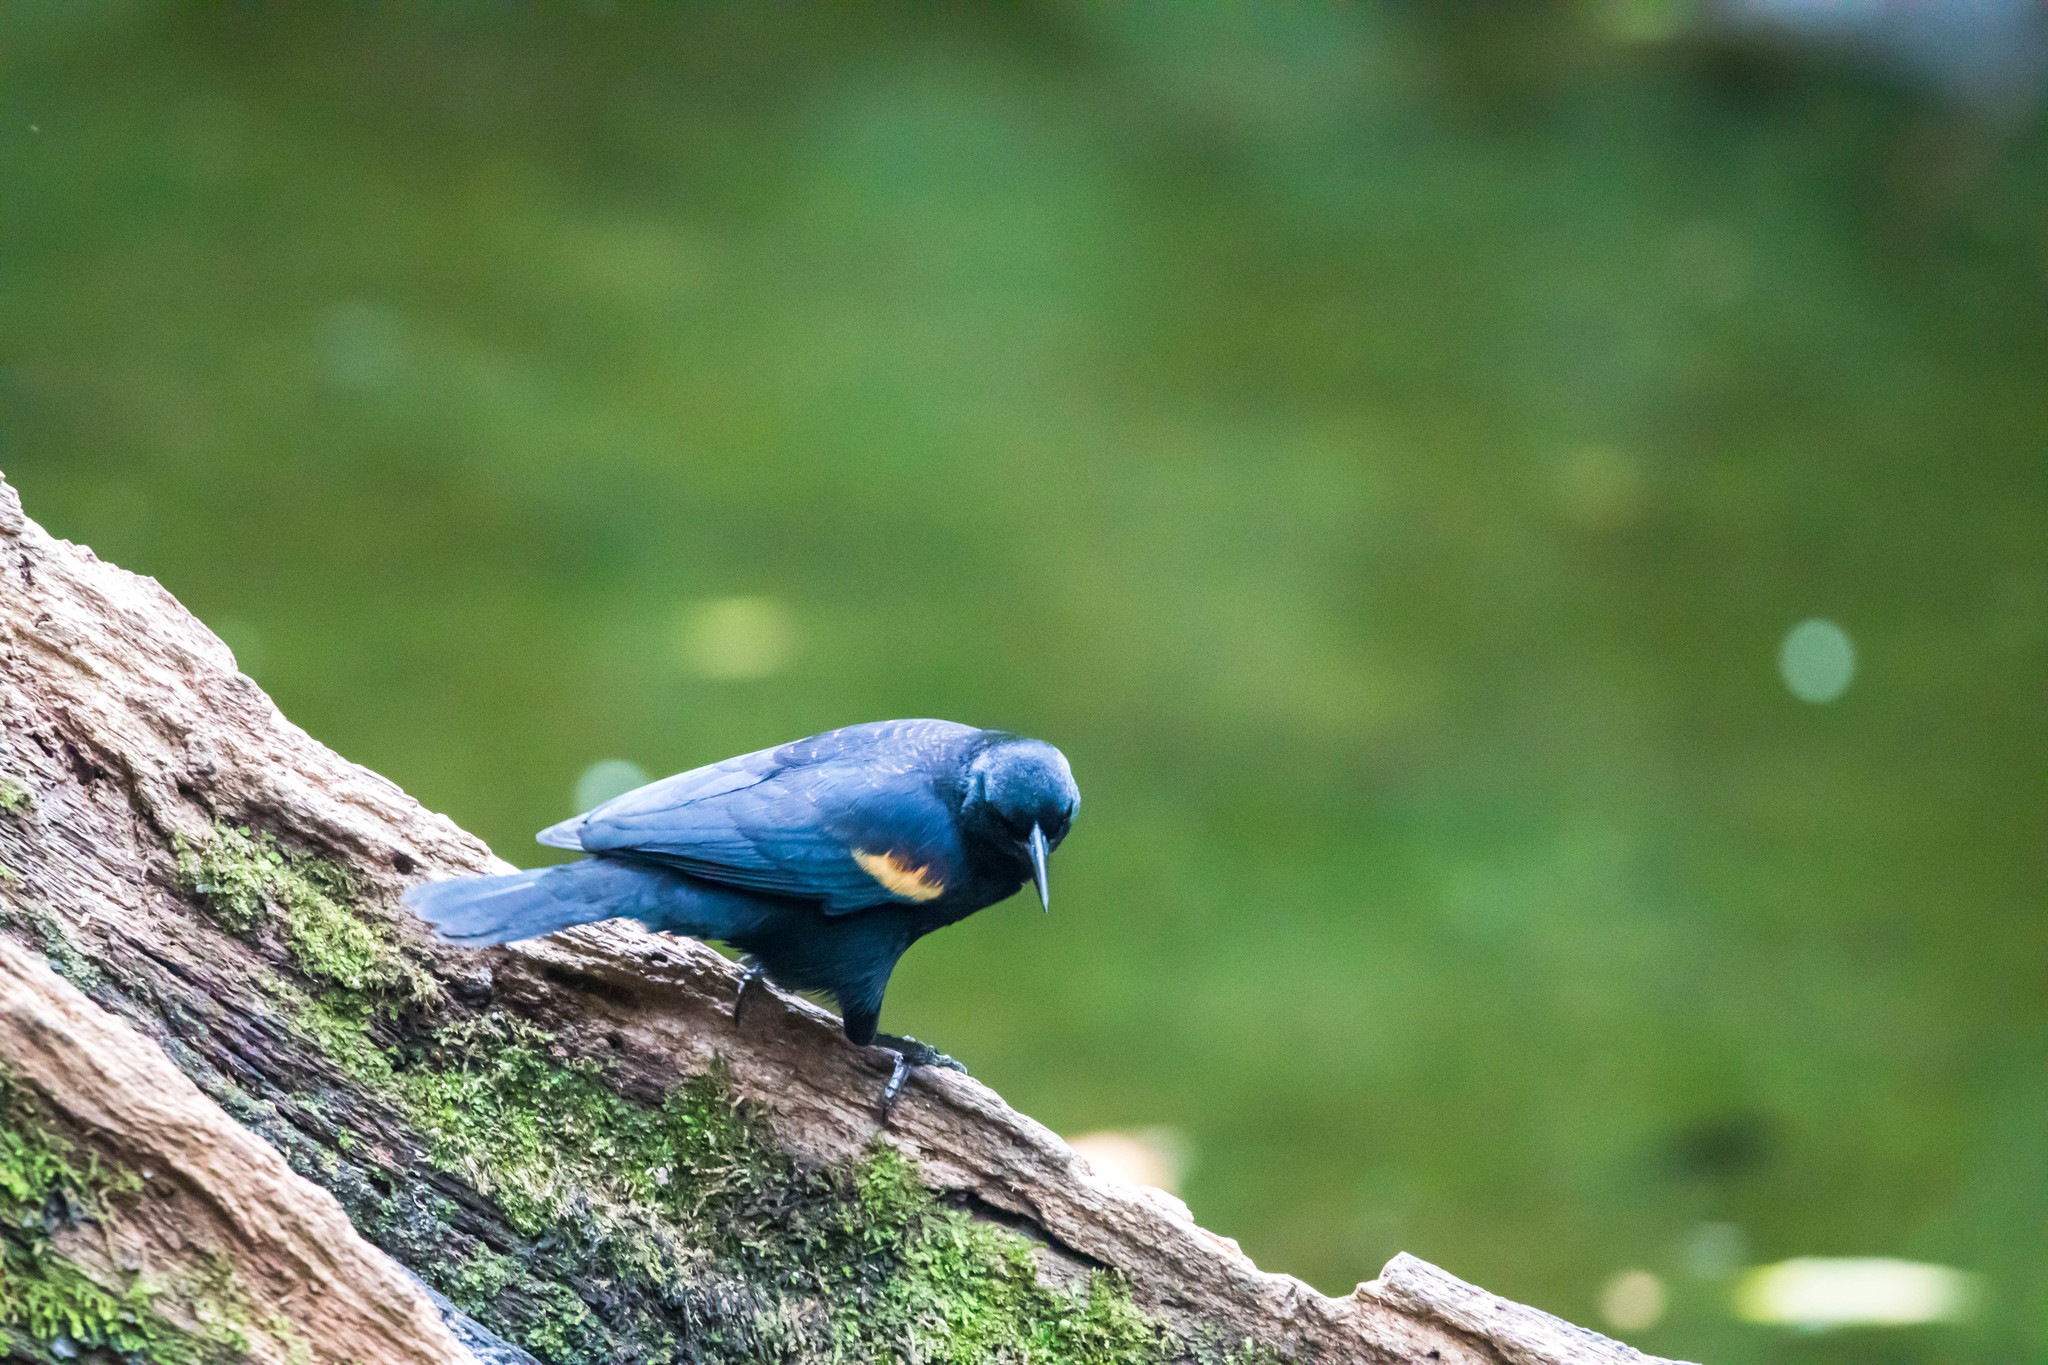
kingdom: Animalia
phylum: Chordata
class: Aves
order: Passeriformes
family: Icteridae
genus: Agelaius
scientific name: Agelaius phoeniceus
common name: Red-winged blackbird
